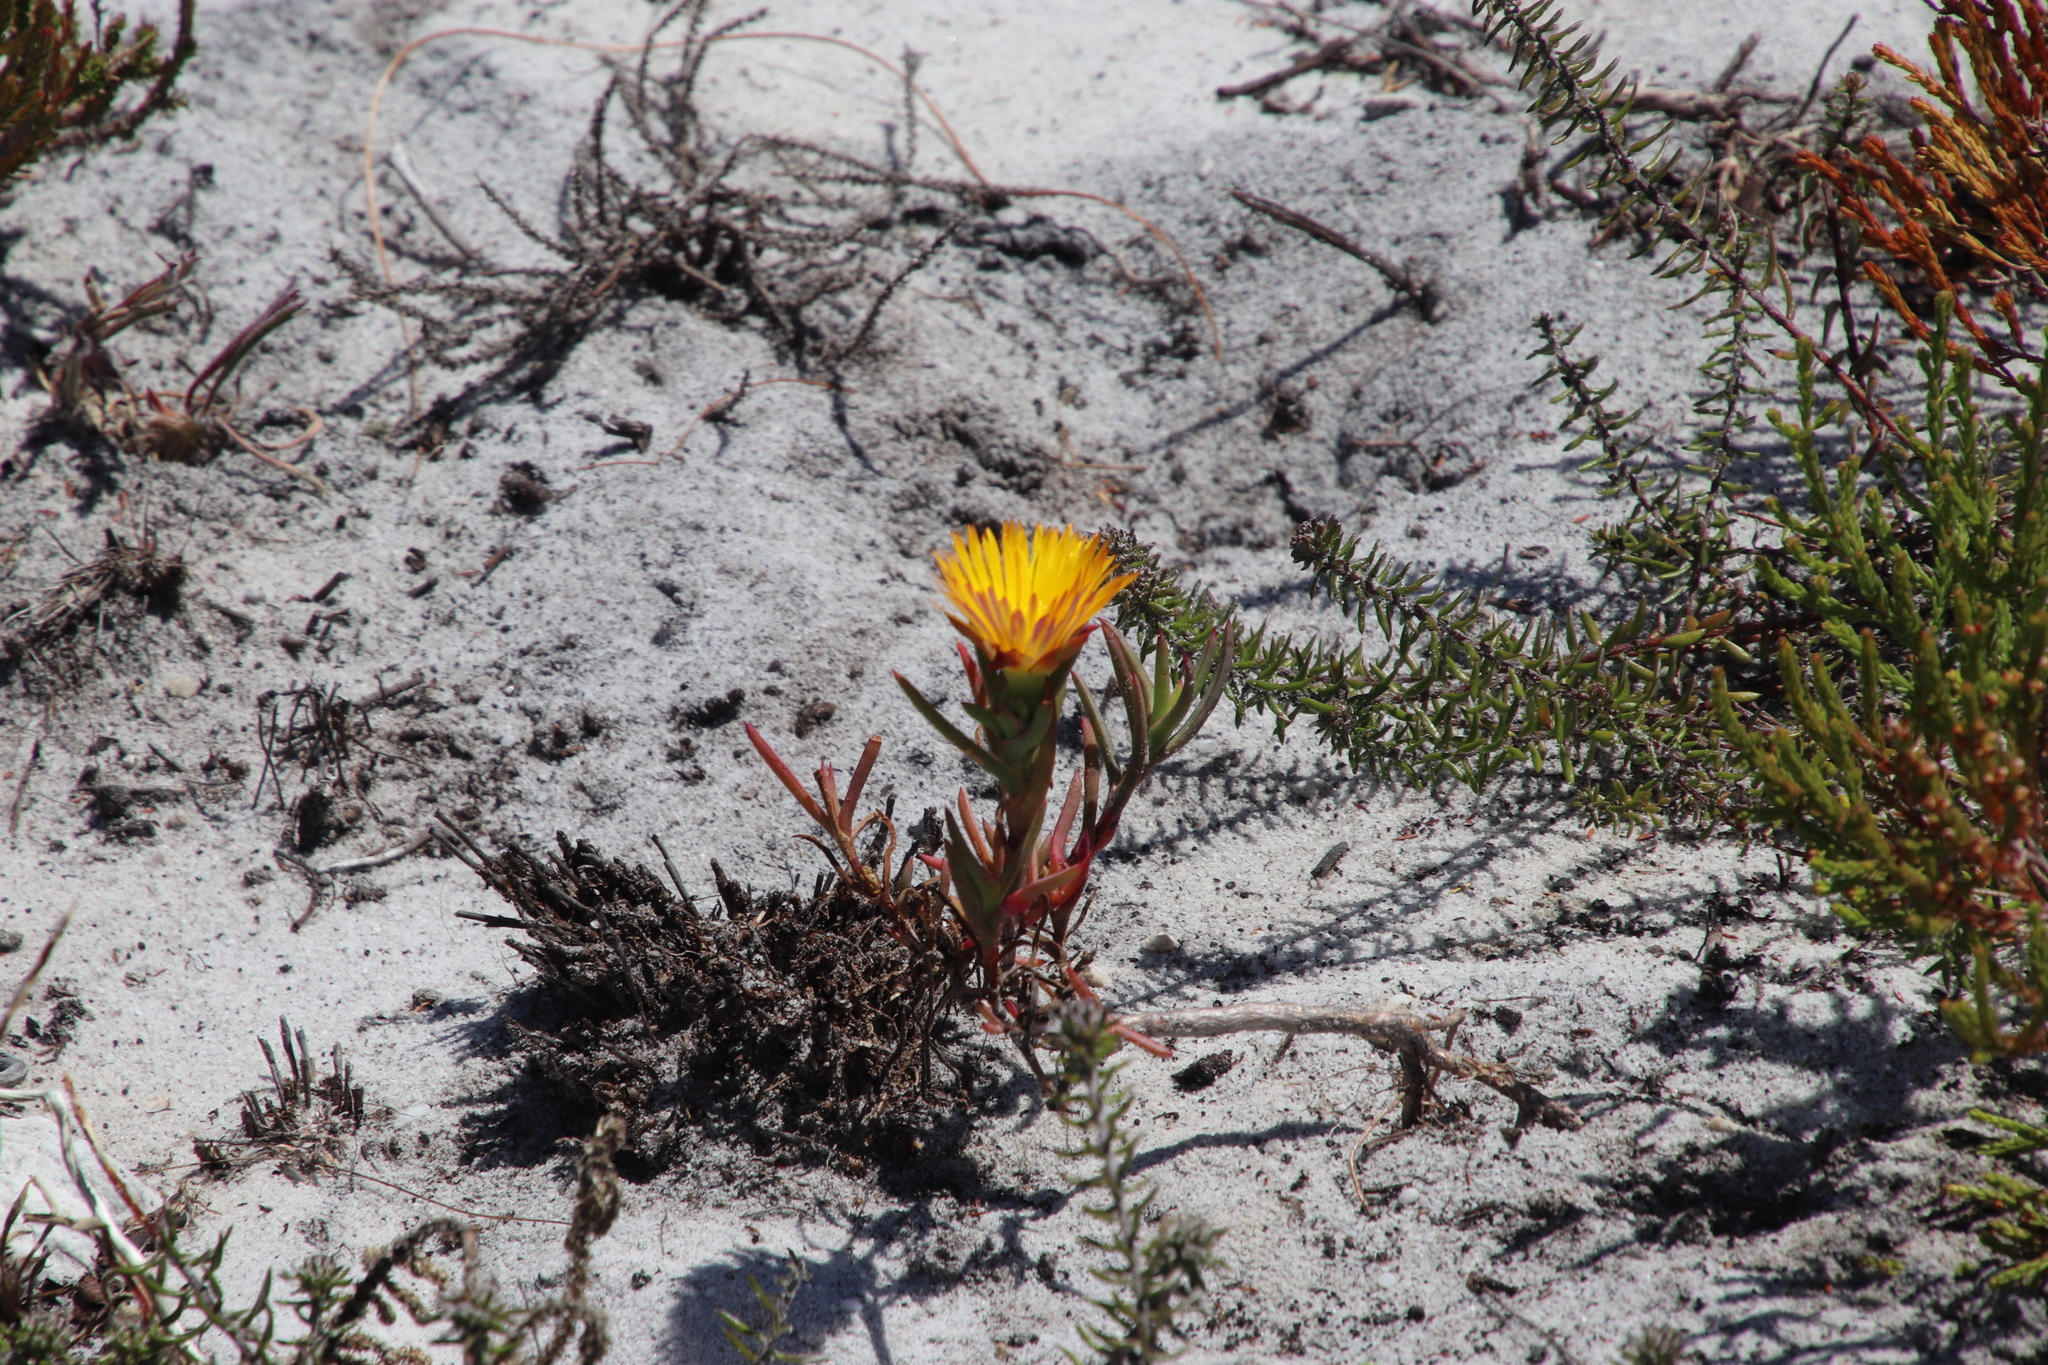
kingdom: Plantae
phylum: Tracheophyta
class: Magnoliopsida
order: Caryophyllales
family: Aizoaceae
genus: Lampranthus
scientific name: Lampranthus bicolor
